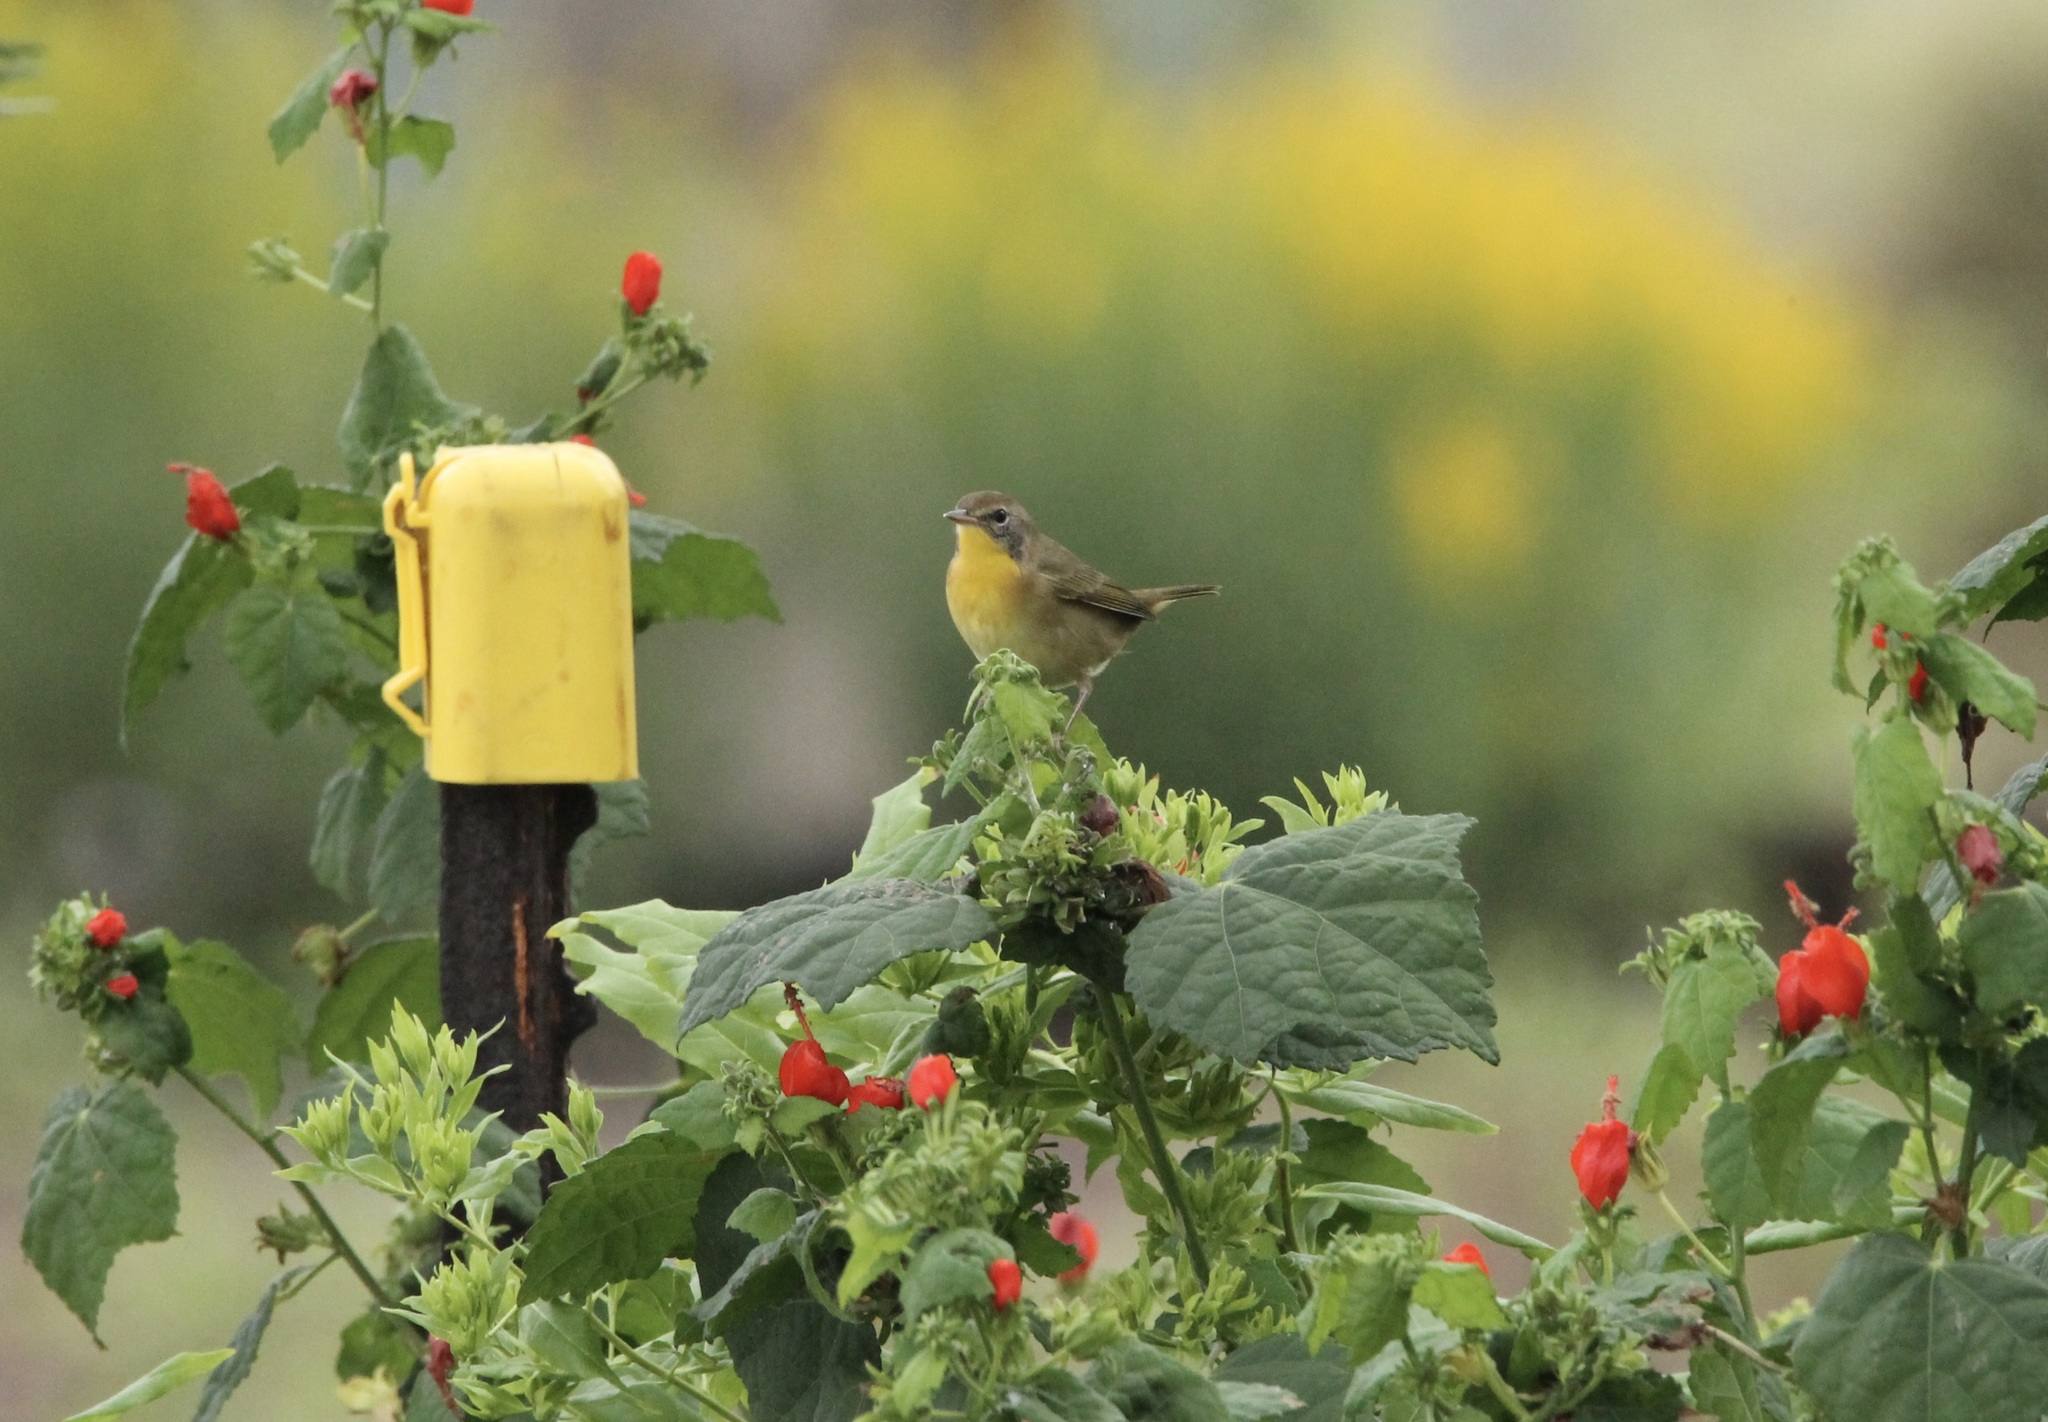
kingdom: Animalia
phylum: Chordata
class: Aves
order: Passeriformes
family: Parulidae
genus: Geothlypis
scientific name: Geothlypis trichas
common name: Common yellowthroat
